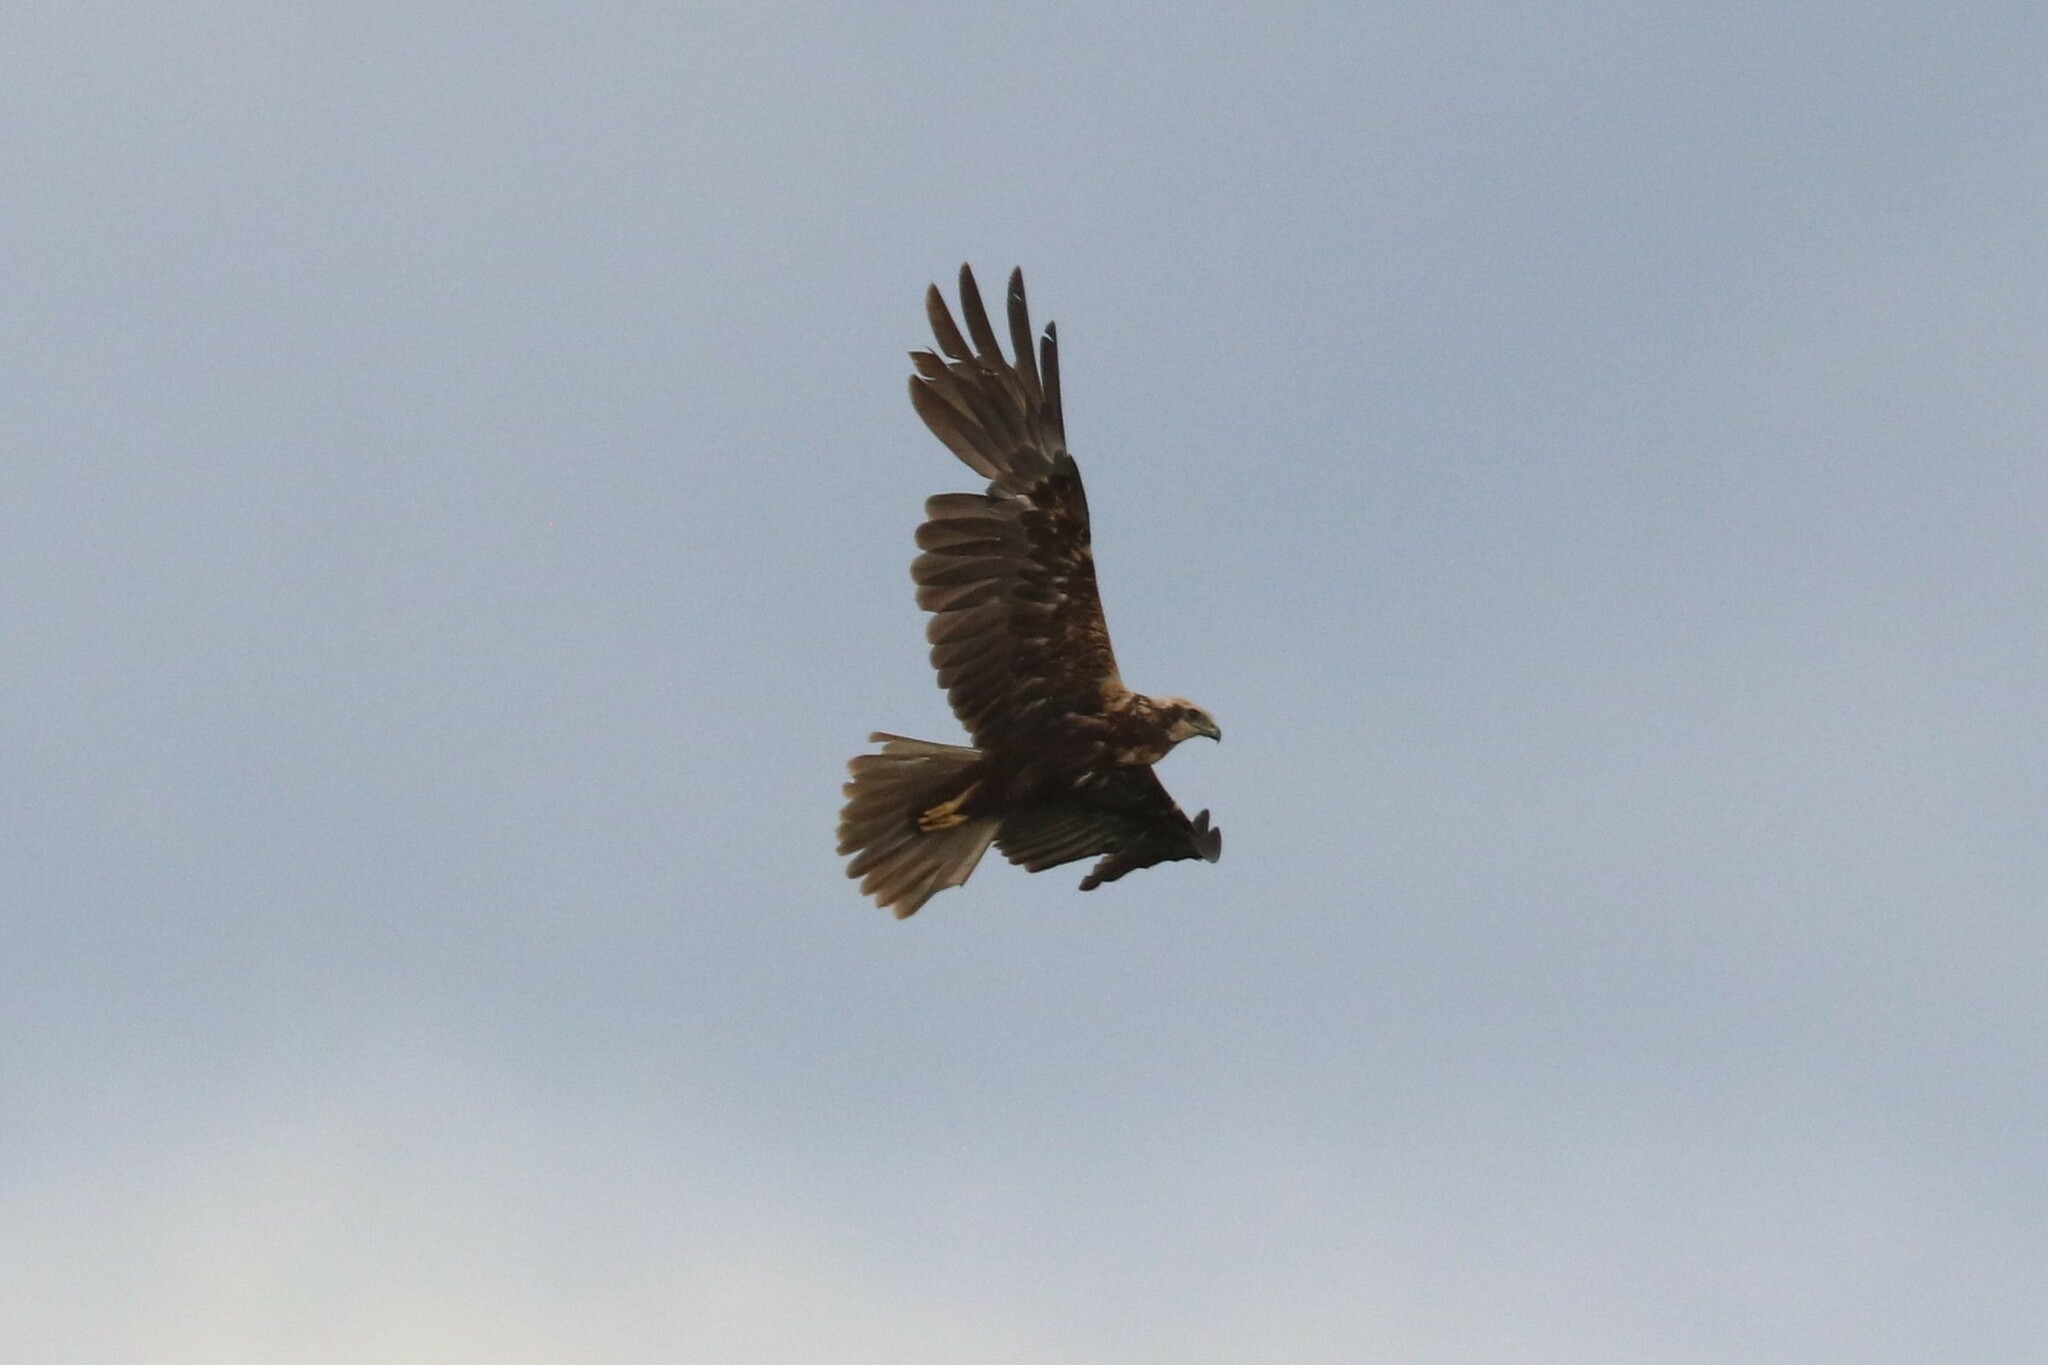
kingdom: Animalia
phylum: Chordata
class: Aves
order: Accipitriformes
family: Accipitridae
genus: Circus
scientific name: Circus aeruginosus
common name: Western marsh harrier
